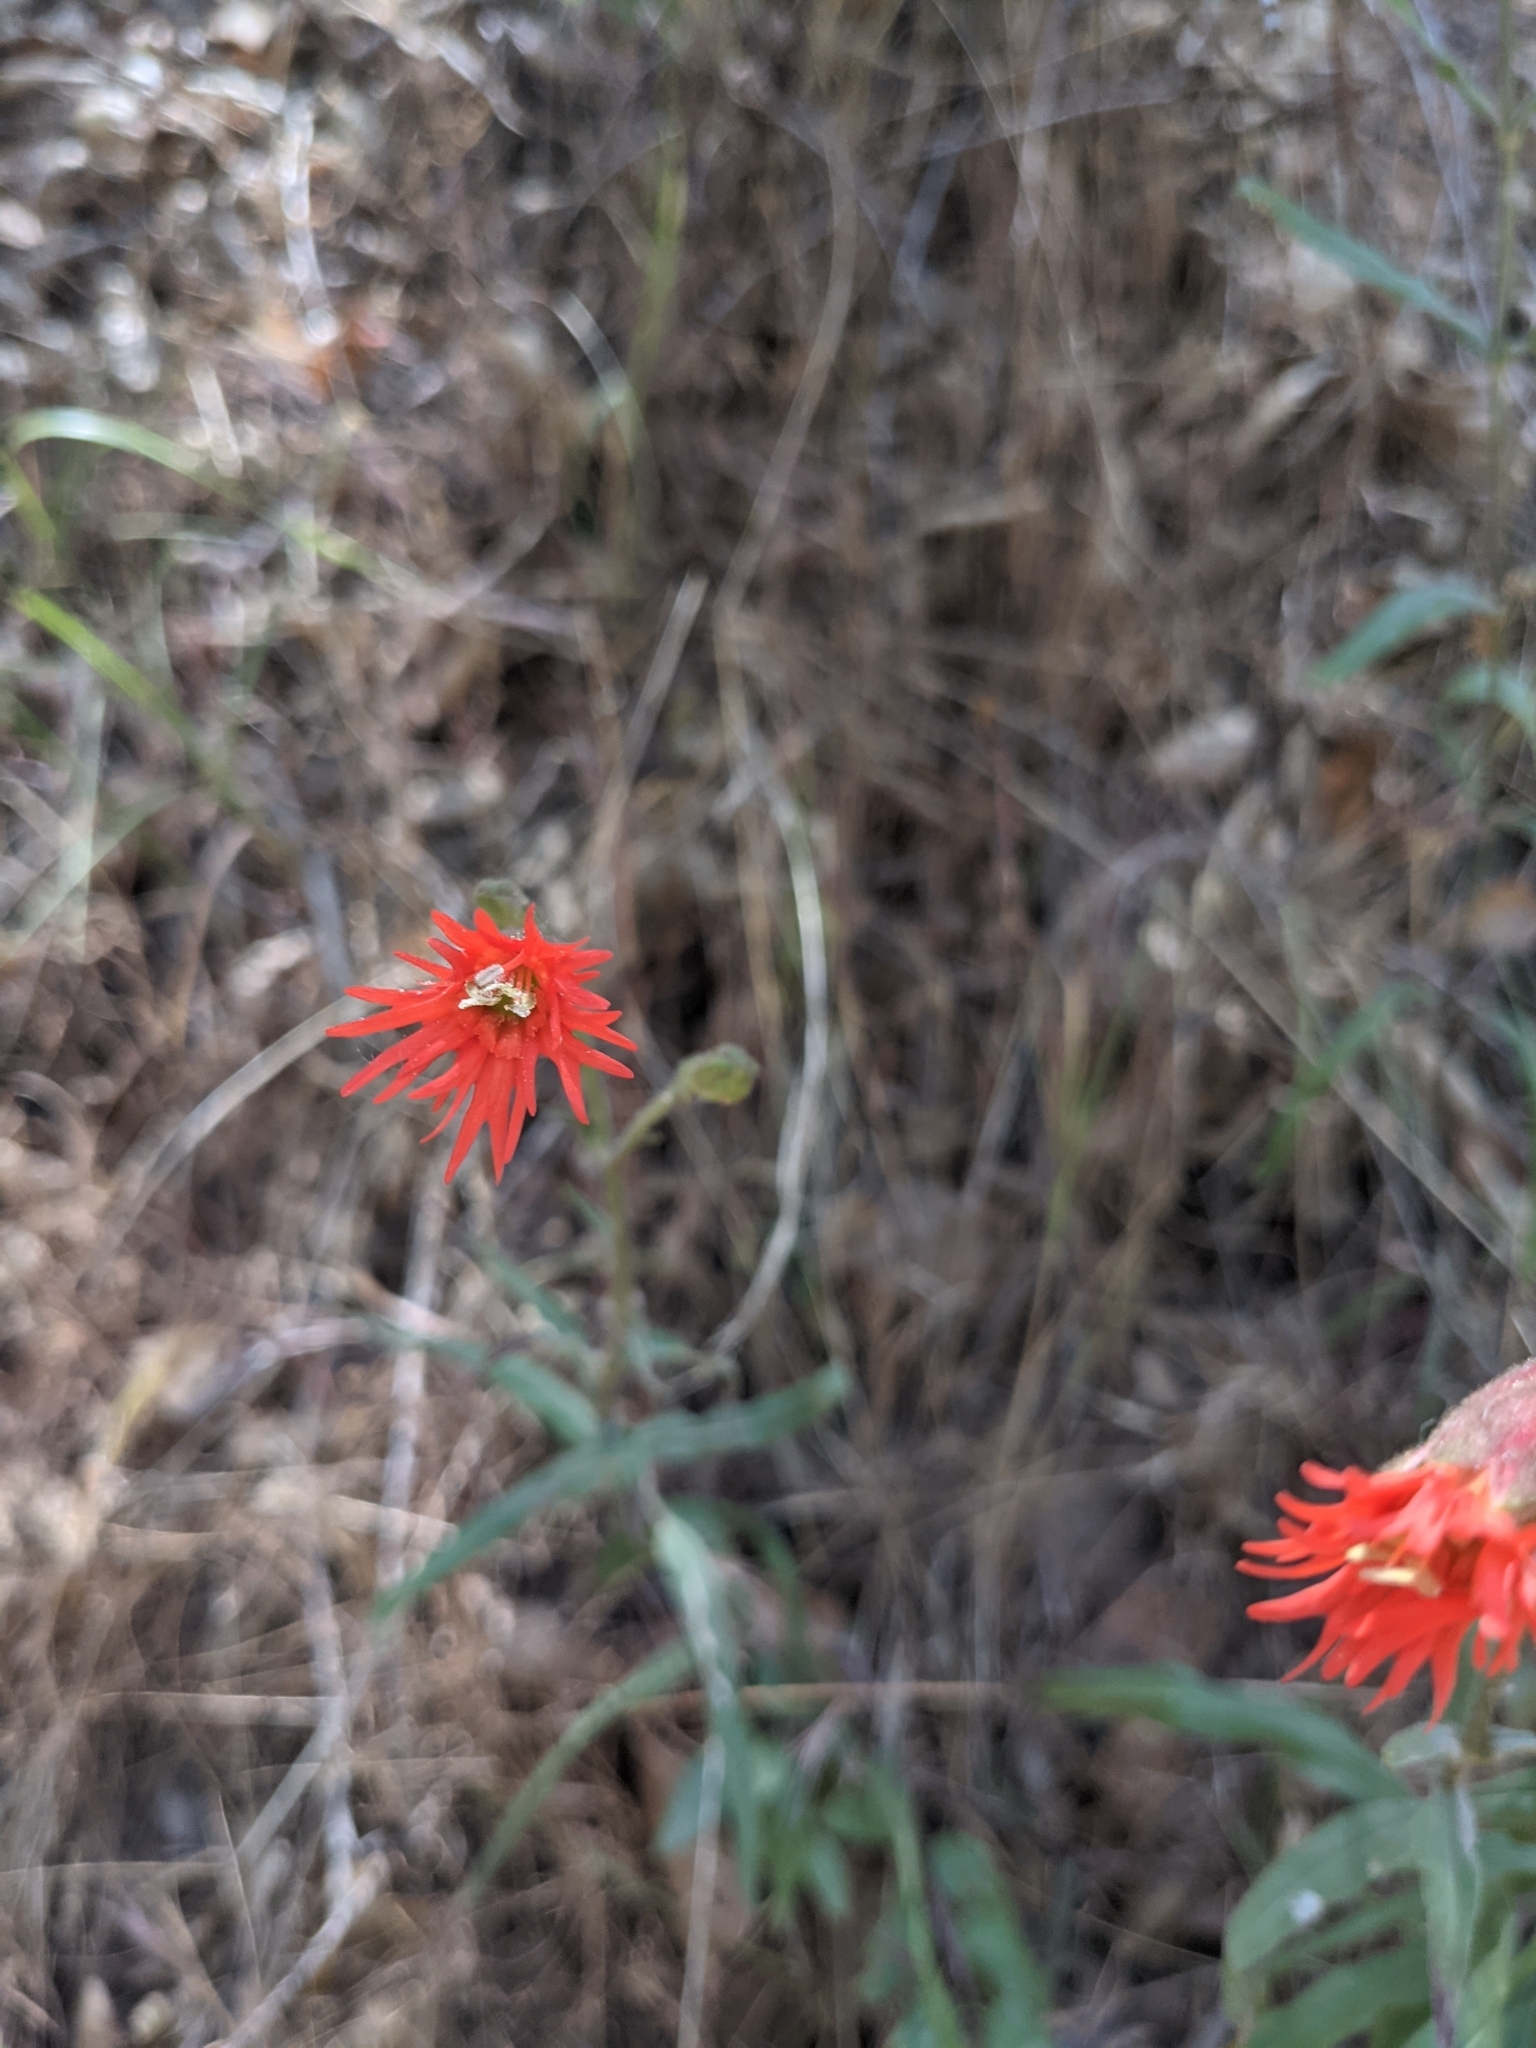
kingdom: Plantae
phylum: Tracheophyta
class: Magnoliopsida
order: Caryophyllales
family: Caryophyllaceae
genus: Silene
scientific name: Silene laciniata
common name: Indian-pink
